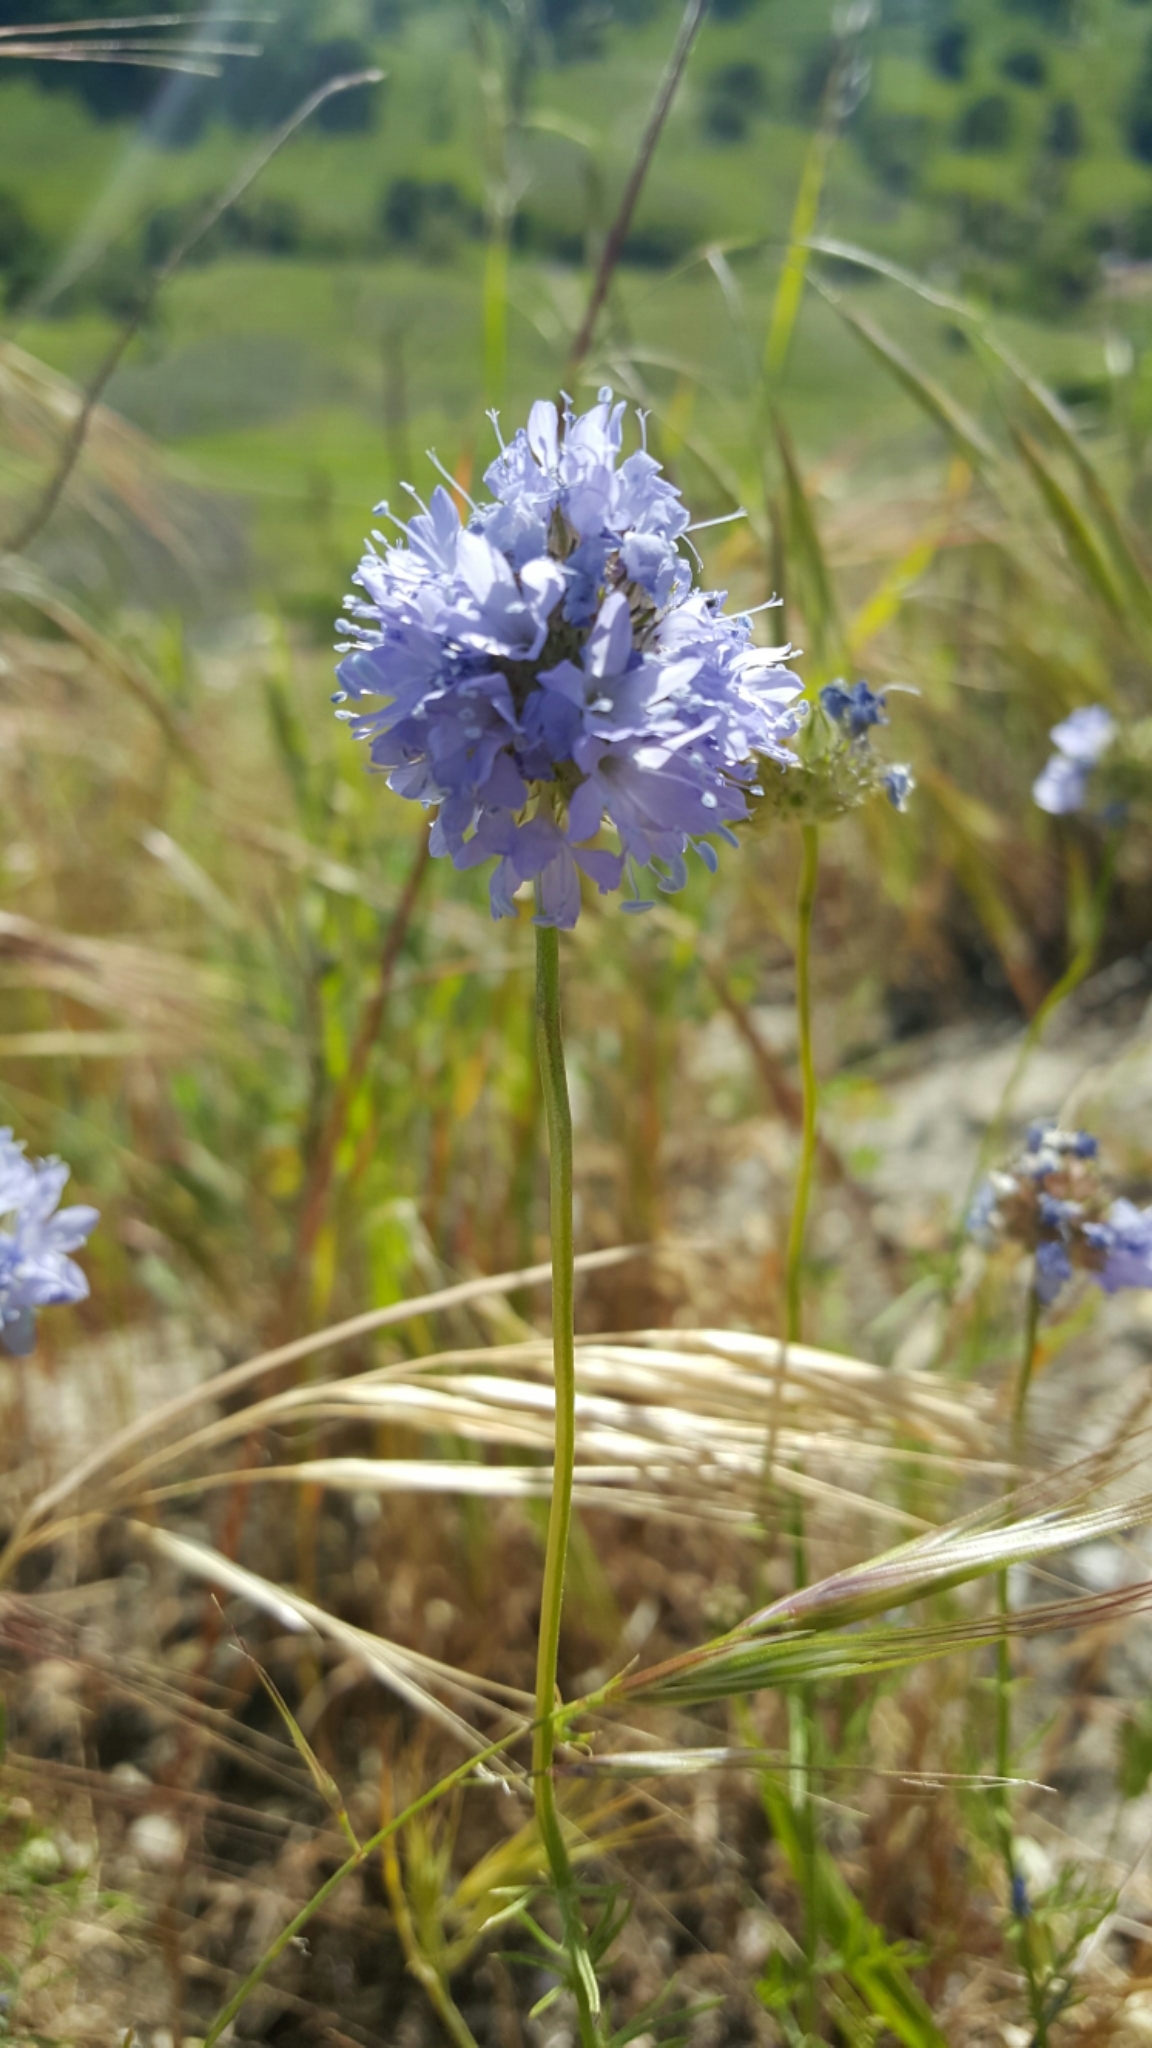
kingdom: Plantae
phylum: Tracheophyta
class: Magnoliopsida
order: Ericales
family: Polemoniaceae
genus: Gilia
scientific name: Gilia capitata
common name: Bluehead gilia
